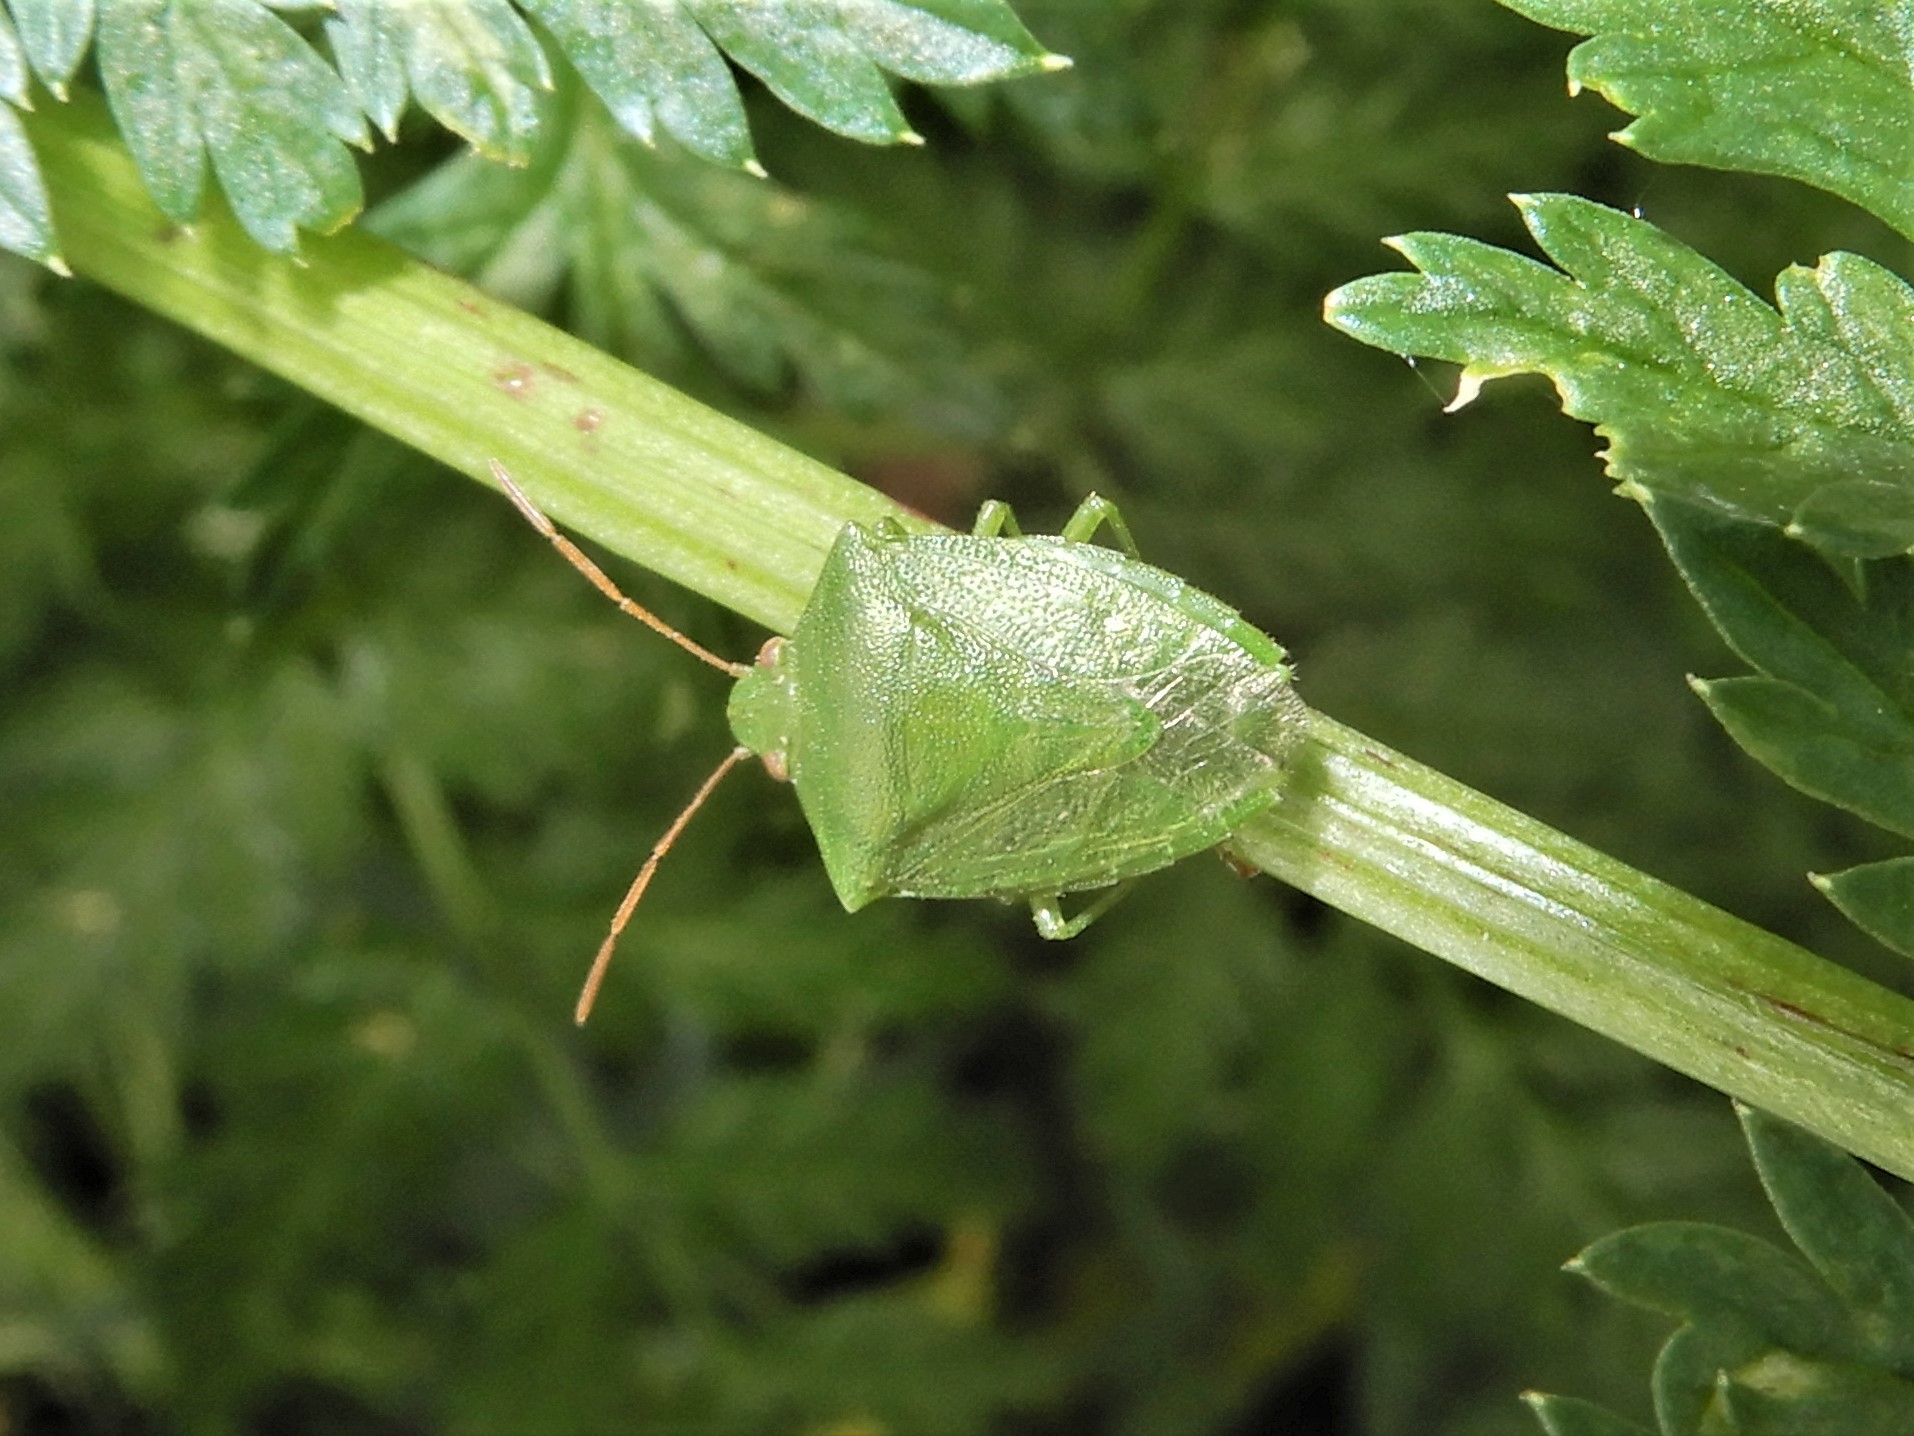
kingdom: Animalia
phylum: Arthropoda
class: Insecta
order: Hemiptera
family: Pentatomidae
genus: Cuspicona
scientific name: Cuspicona simplex
